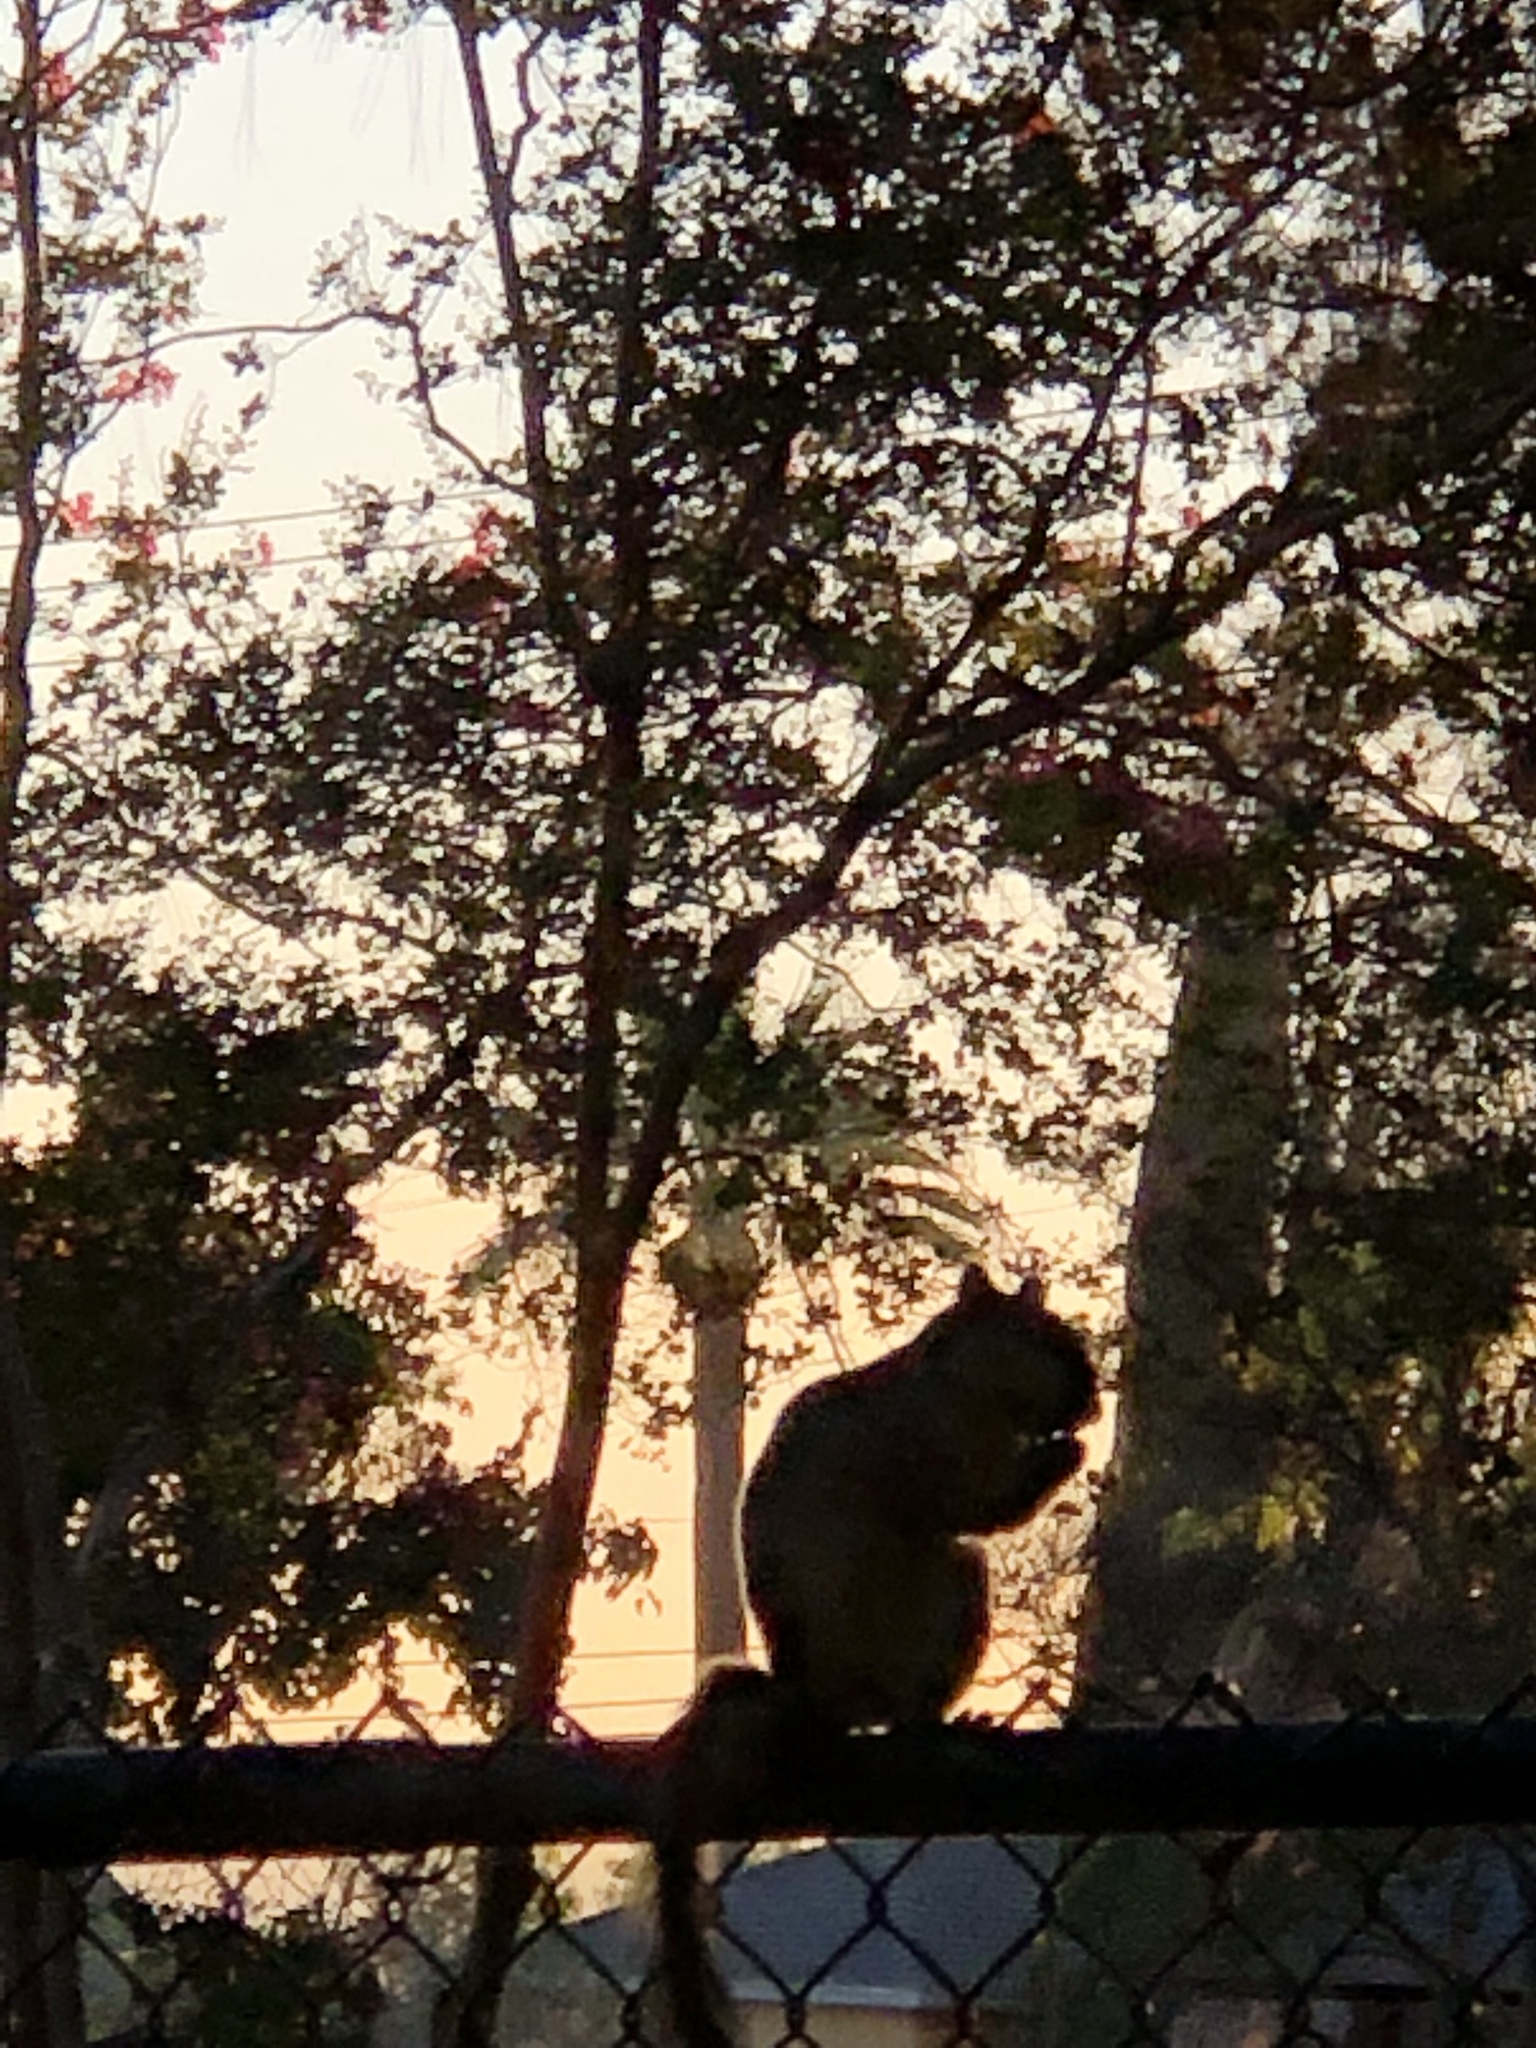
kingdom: Animalia
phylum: Chordata
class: Mammalia
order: Rodentia
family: Sciuridae
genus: Sciurus
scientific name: Sciurus niger
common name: Fox squirrel
